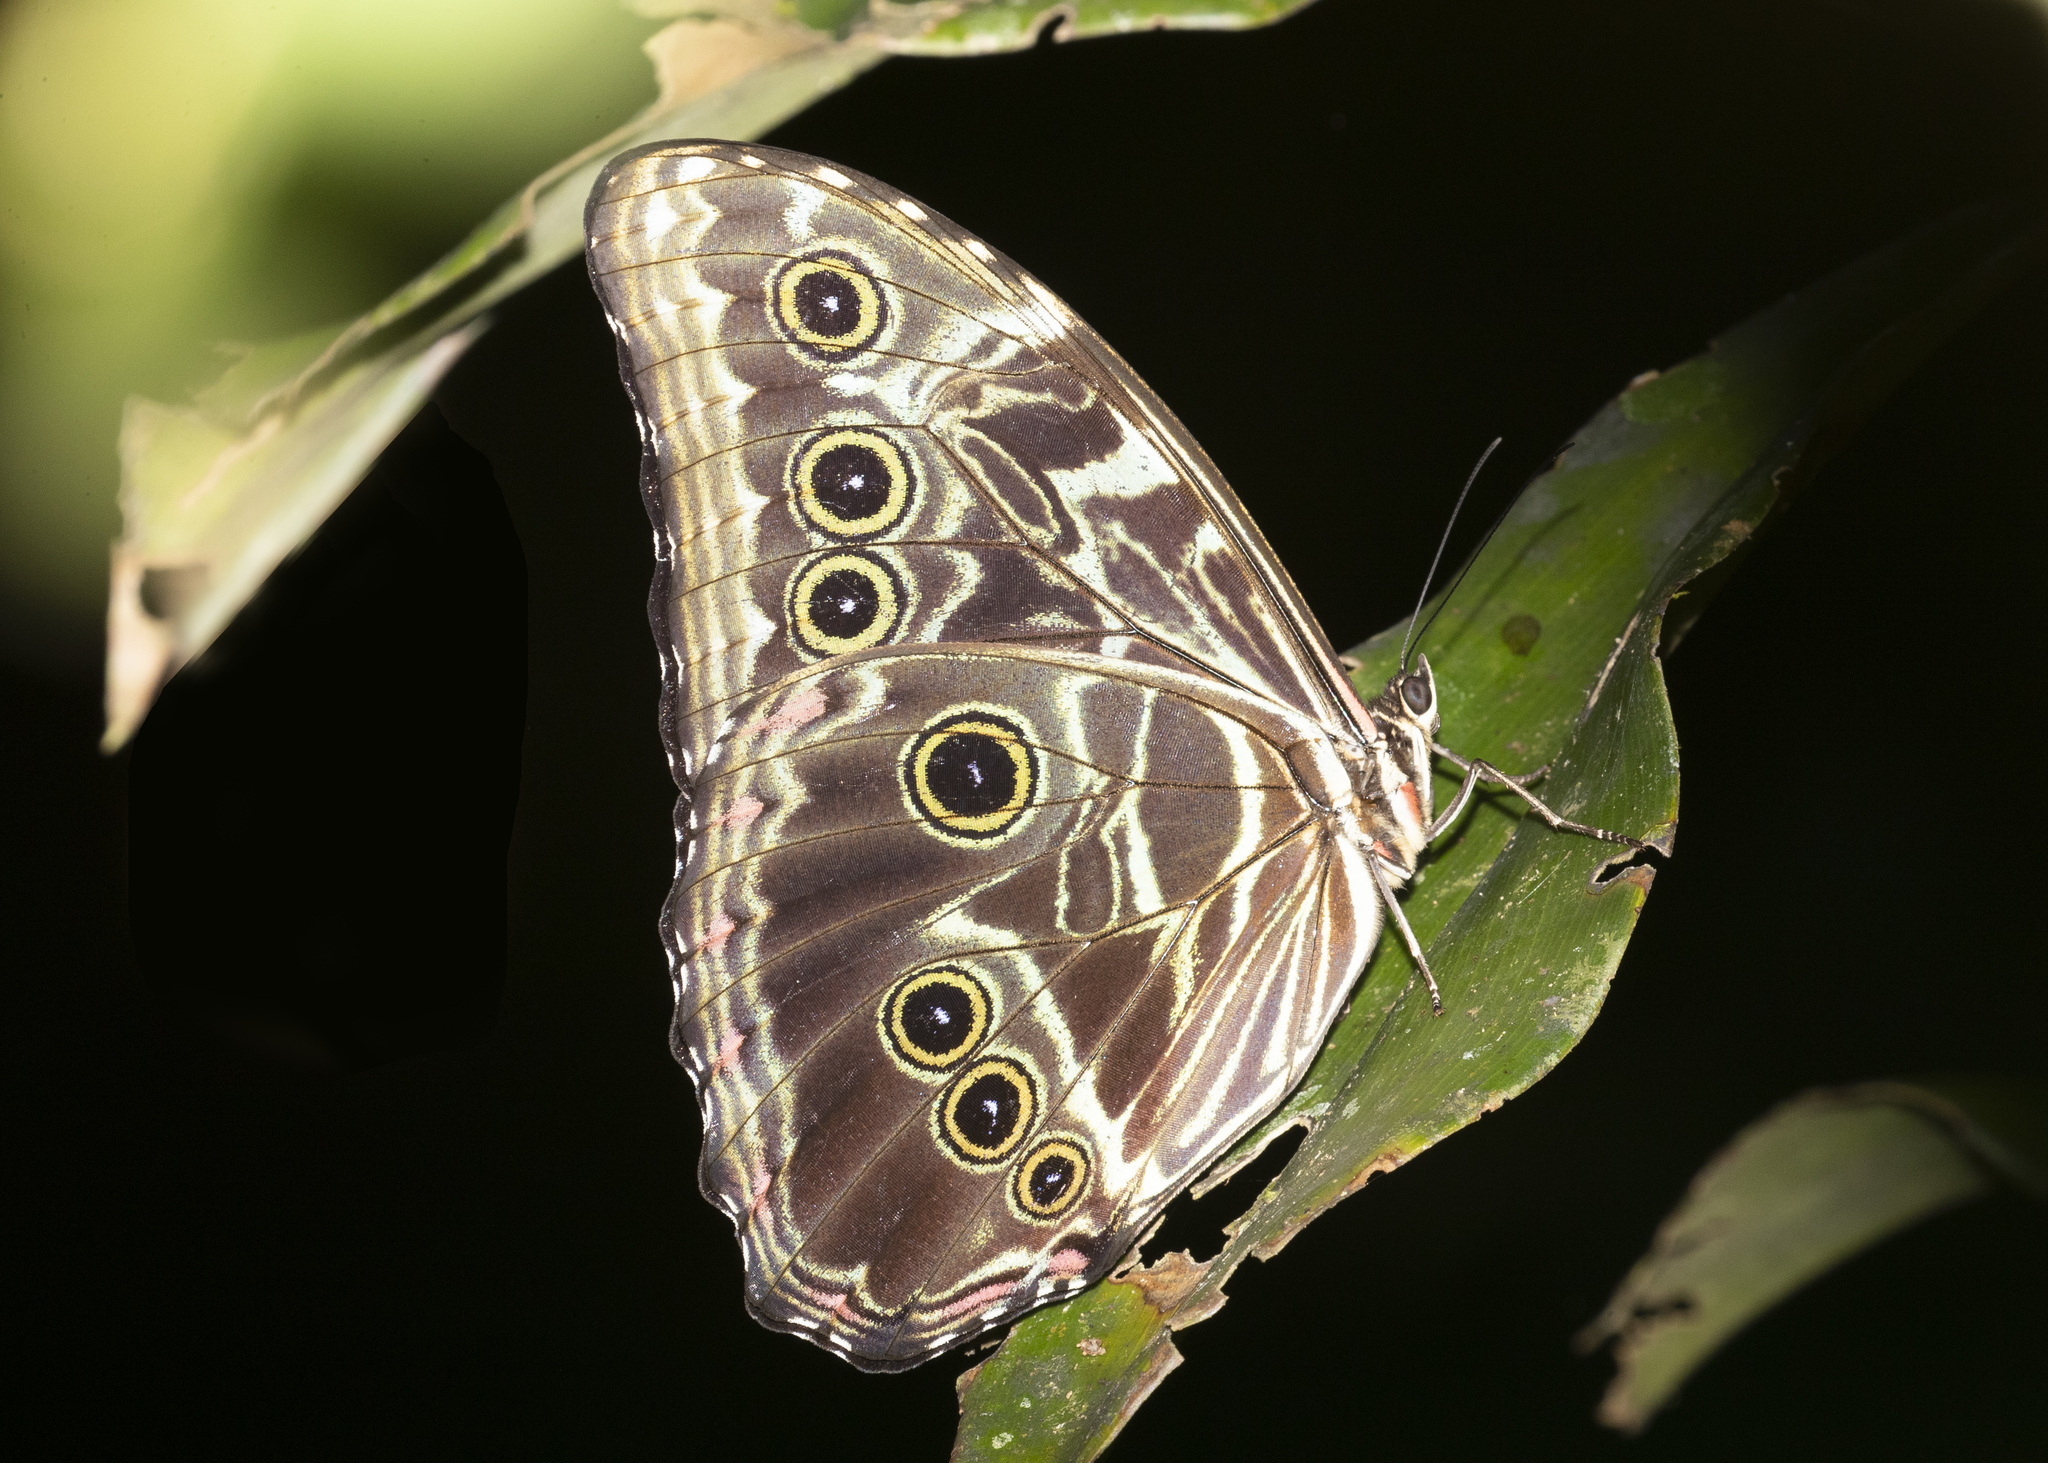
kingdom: Animalia
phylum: Arthropoda
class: Insecta
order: Lepidoptera
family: Nymphalidae
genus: Morpho
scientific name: Morpho deidamia
